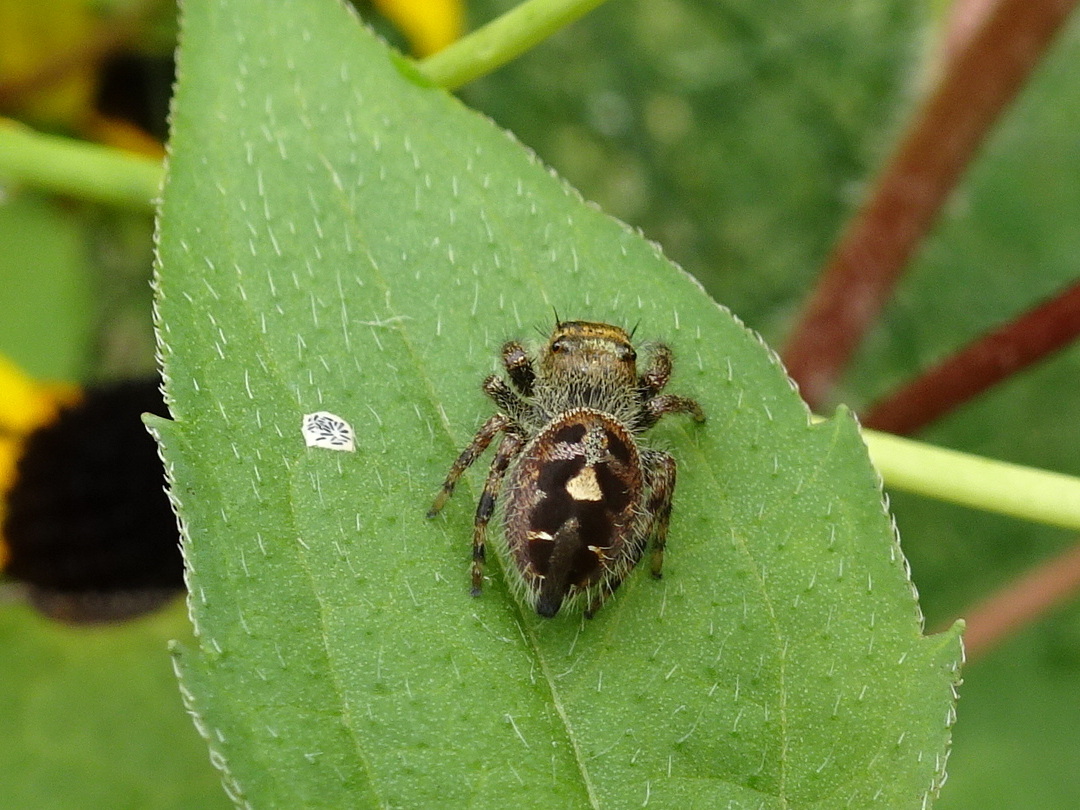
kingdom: Animalia
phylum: Arthropoda
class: Arachnida
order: Araneae
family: Salticidae
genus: Phidippus
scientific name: Phidippus audax
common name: Bold jumper
